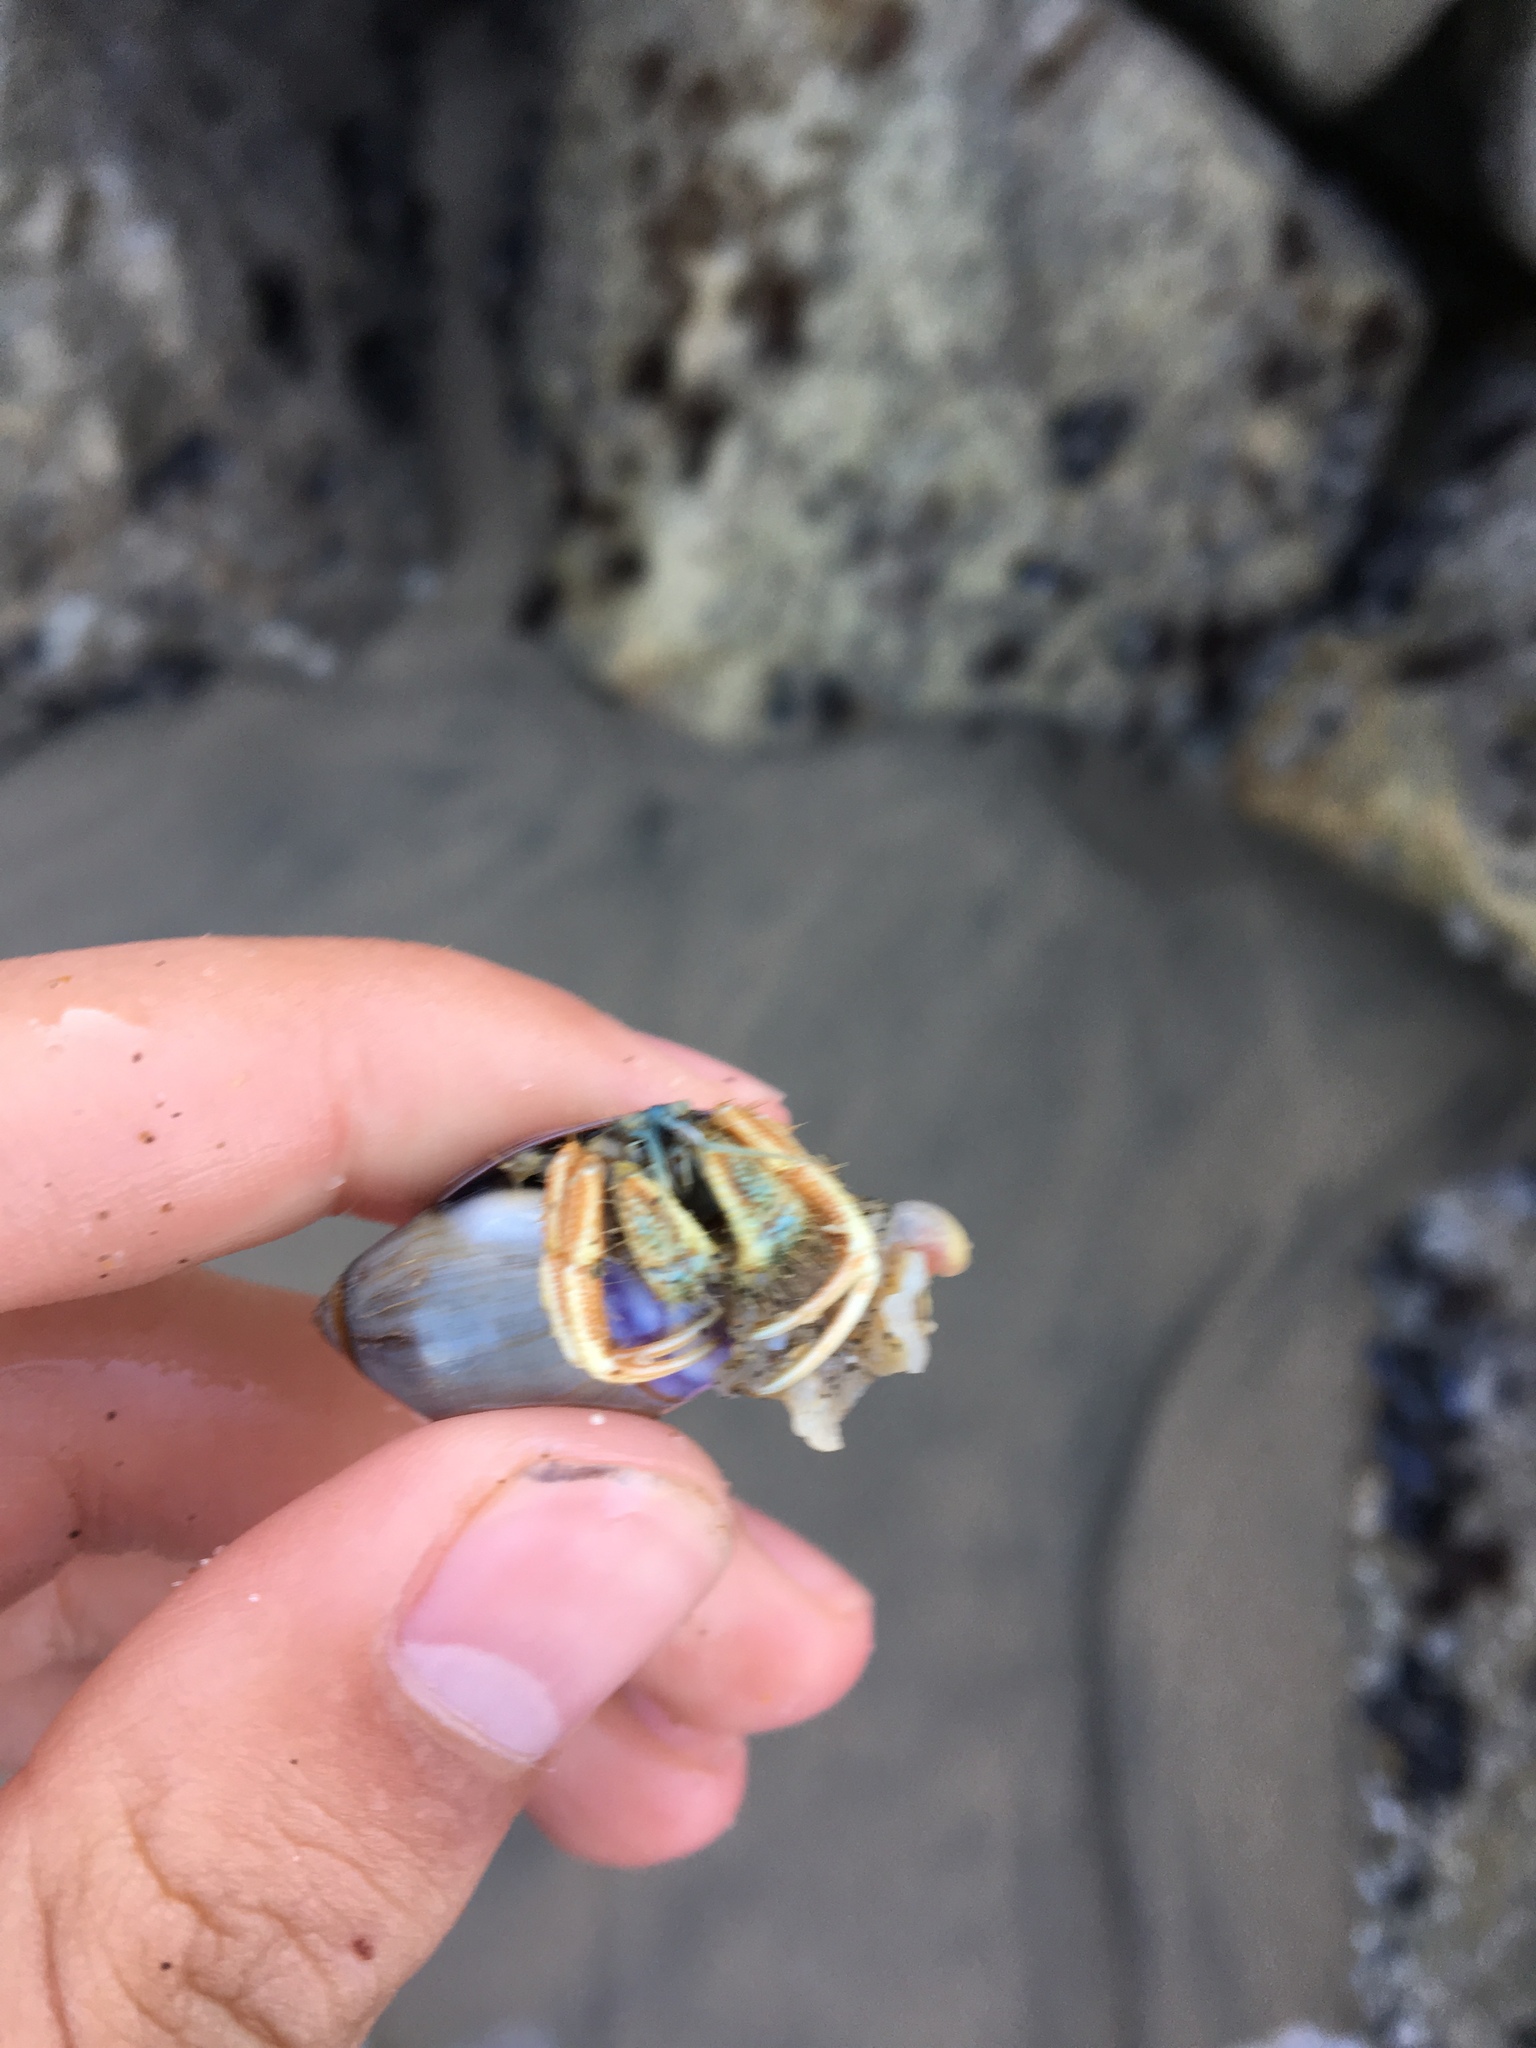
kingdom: Animalia
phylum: Mollusca
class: Gastropoda
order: Neogastropoda
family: Olividae
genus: Callianax
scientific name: Callianax biplicata
